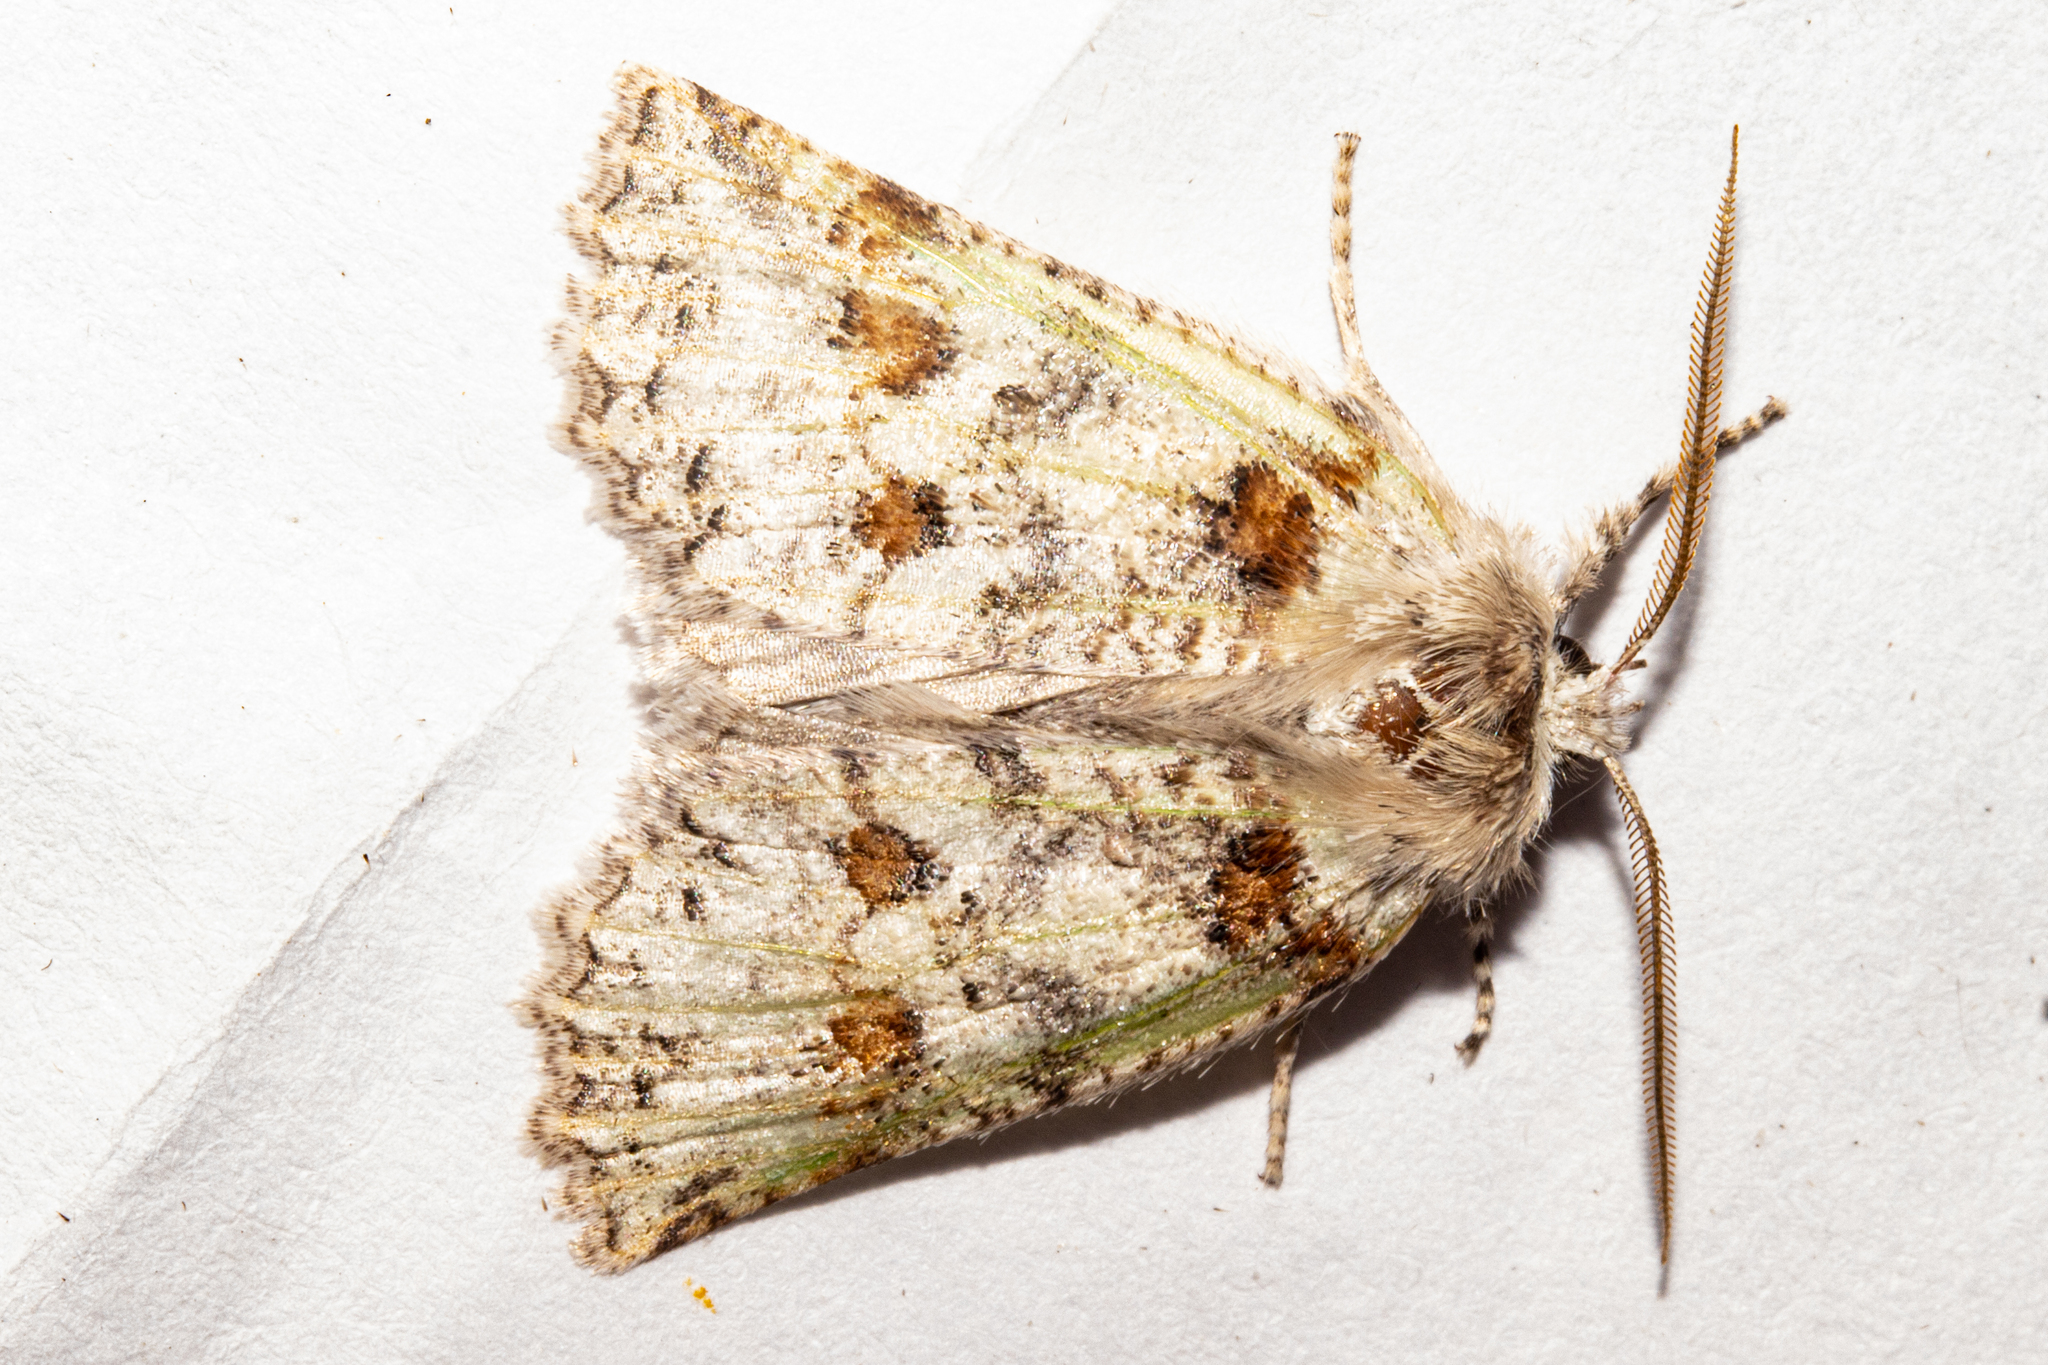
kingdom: Animalia
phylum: Arthropoda
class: Insecta
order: Lepidoptera
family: Geometridae
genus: Declana
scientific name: Declana floccosa
